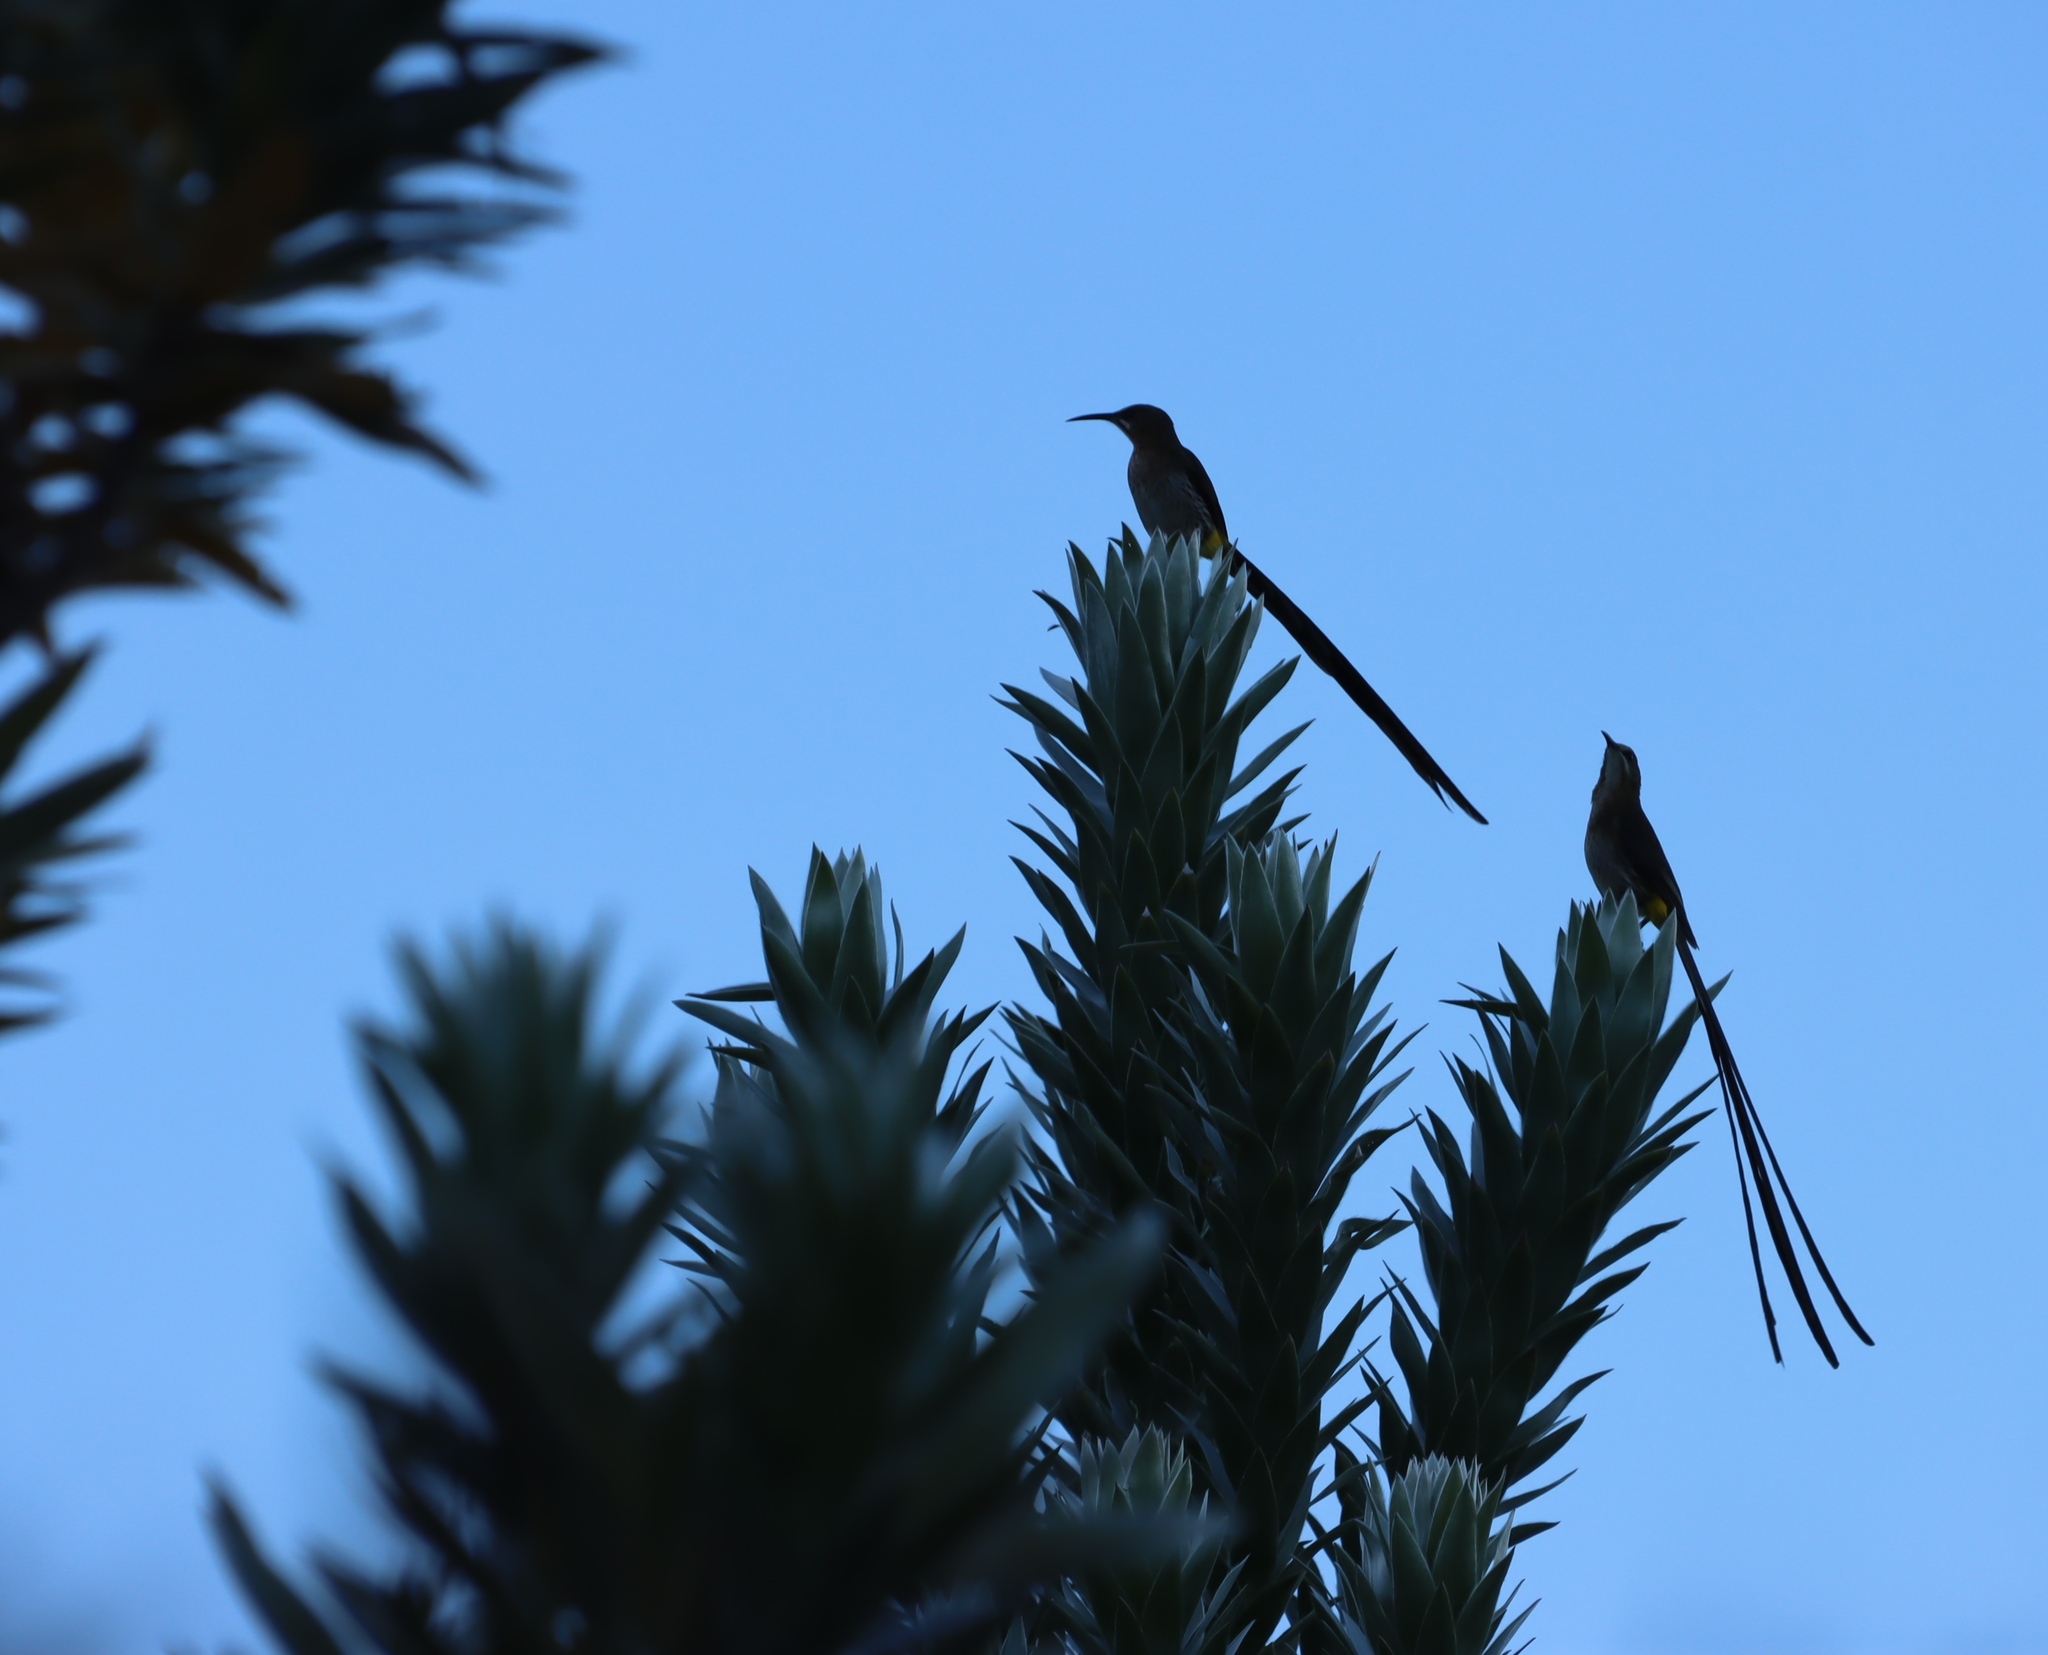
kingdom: Animalia
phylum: Chordata
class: Aves
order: Passeriformes
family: Promeropidae
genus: Promerops
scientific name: Promerops cafer
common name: Cape sugarbird
